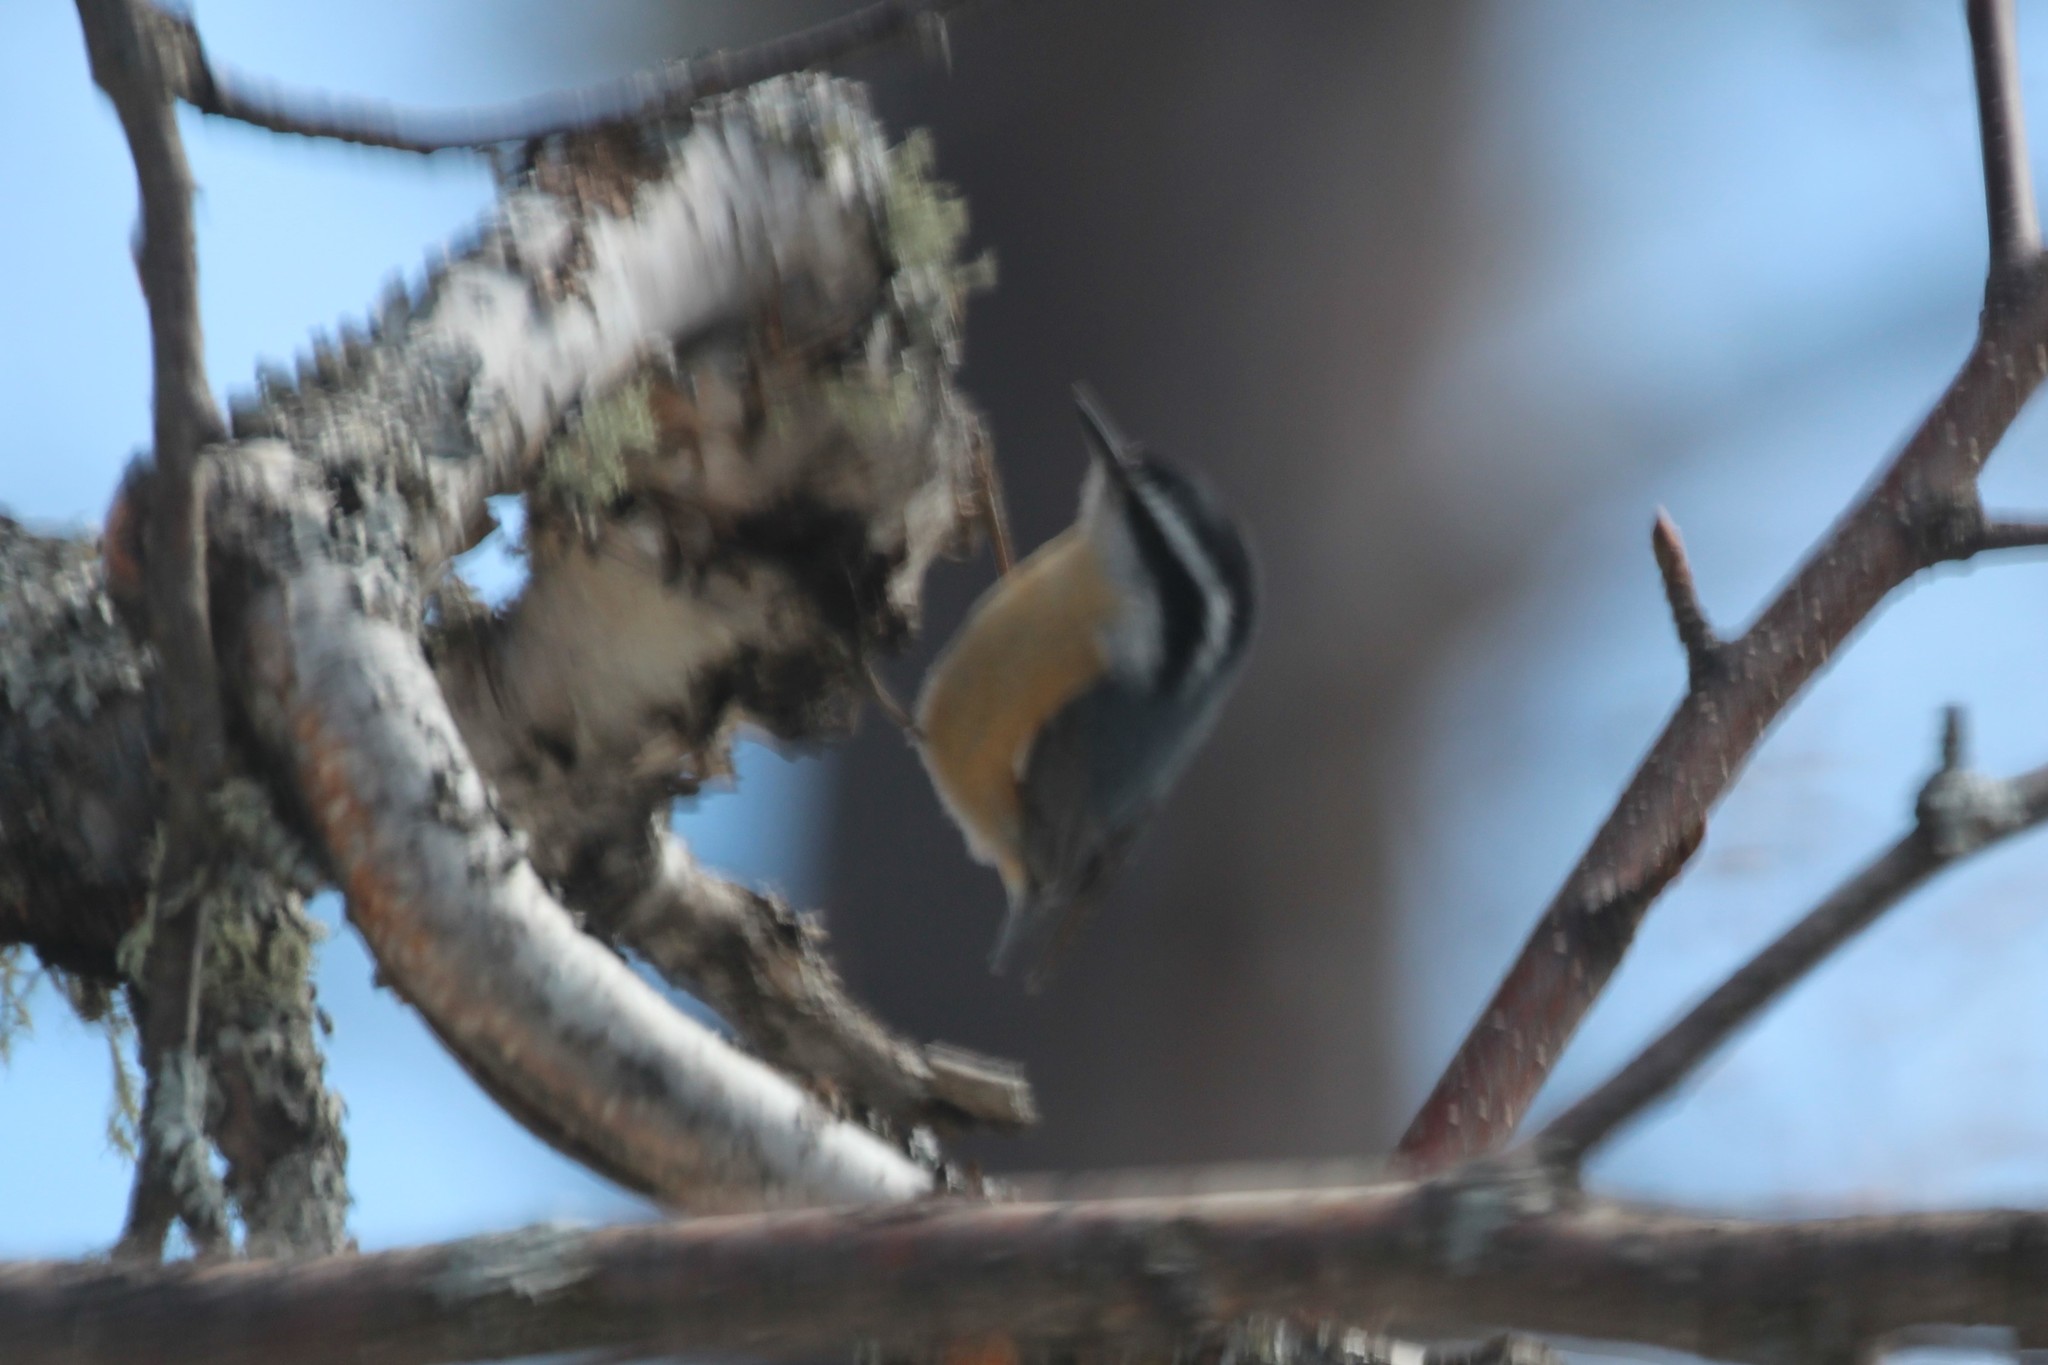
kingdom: Animalia
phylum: Chordata
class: Aves
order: Passeriformes
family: Sittidae
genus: Sitta
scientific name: Sitta canadensis
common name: Red-breasted nuthatch
